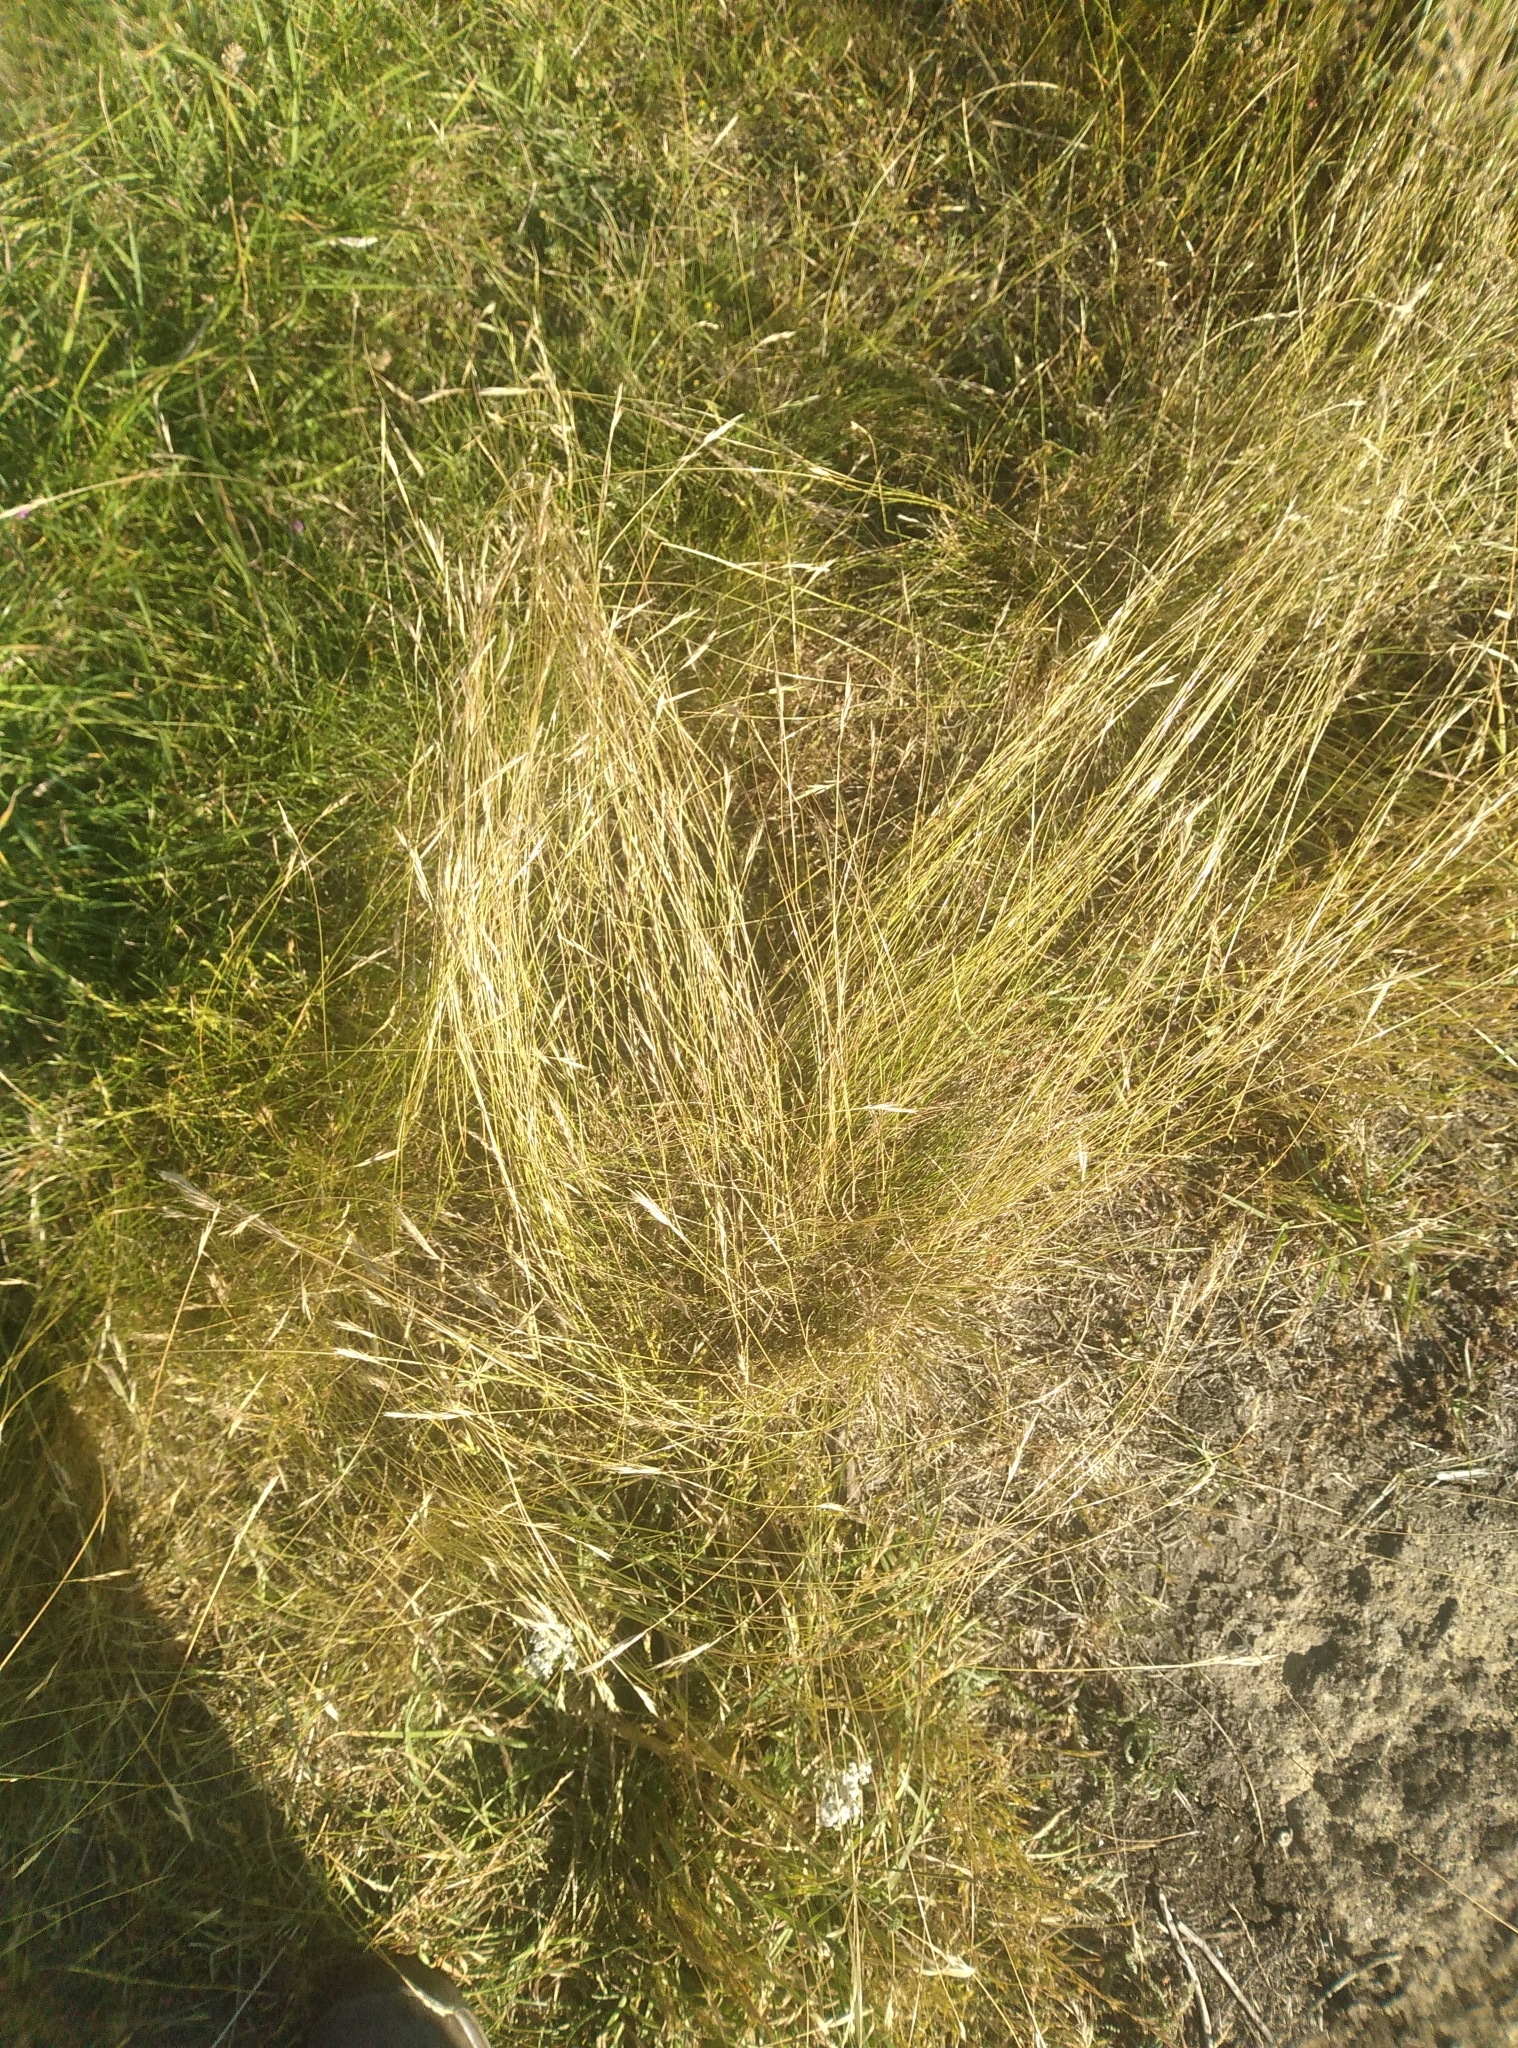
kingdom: Plantae
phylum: Tracheophyta
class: Liliopsida
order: Poales
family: Poaceae
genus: Rytidosperma
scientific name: Rytidosperma clavatum
